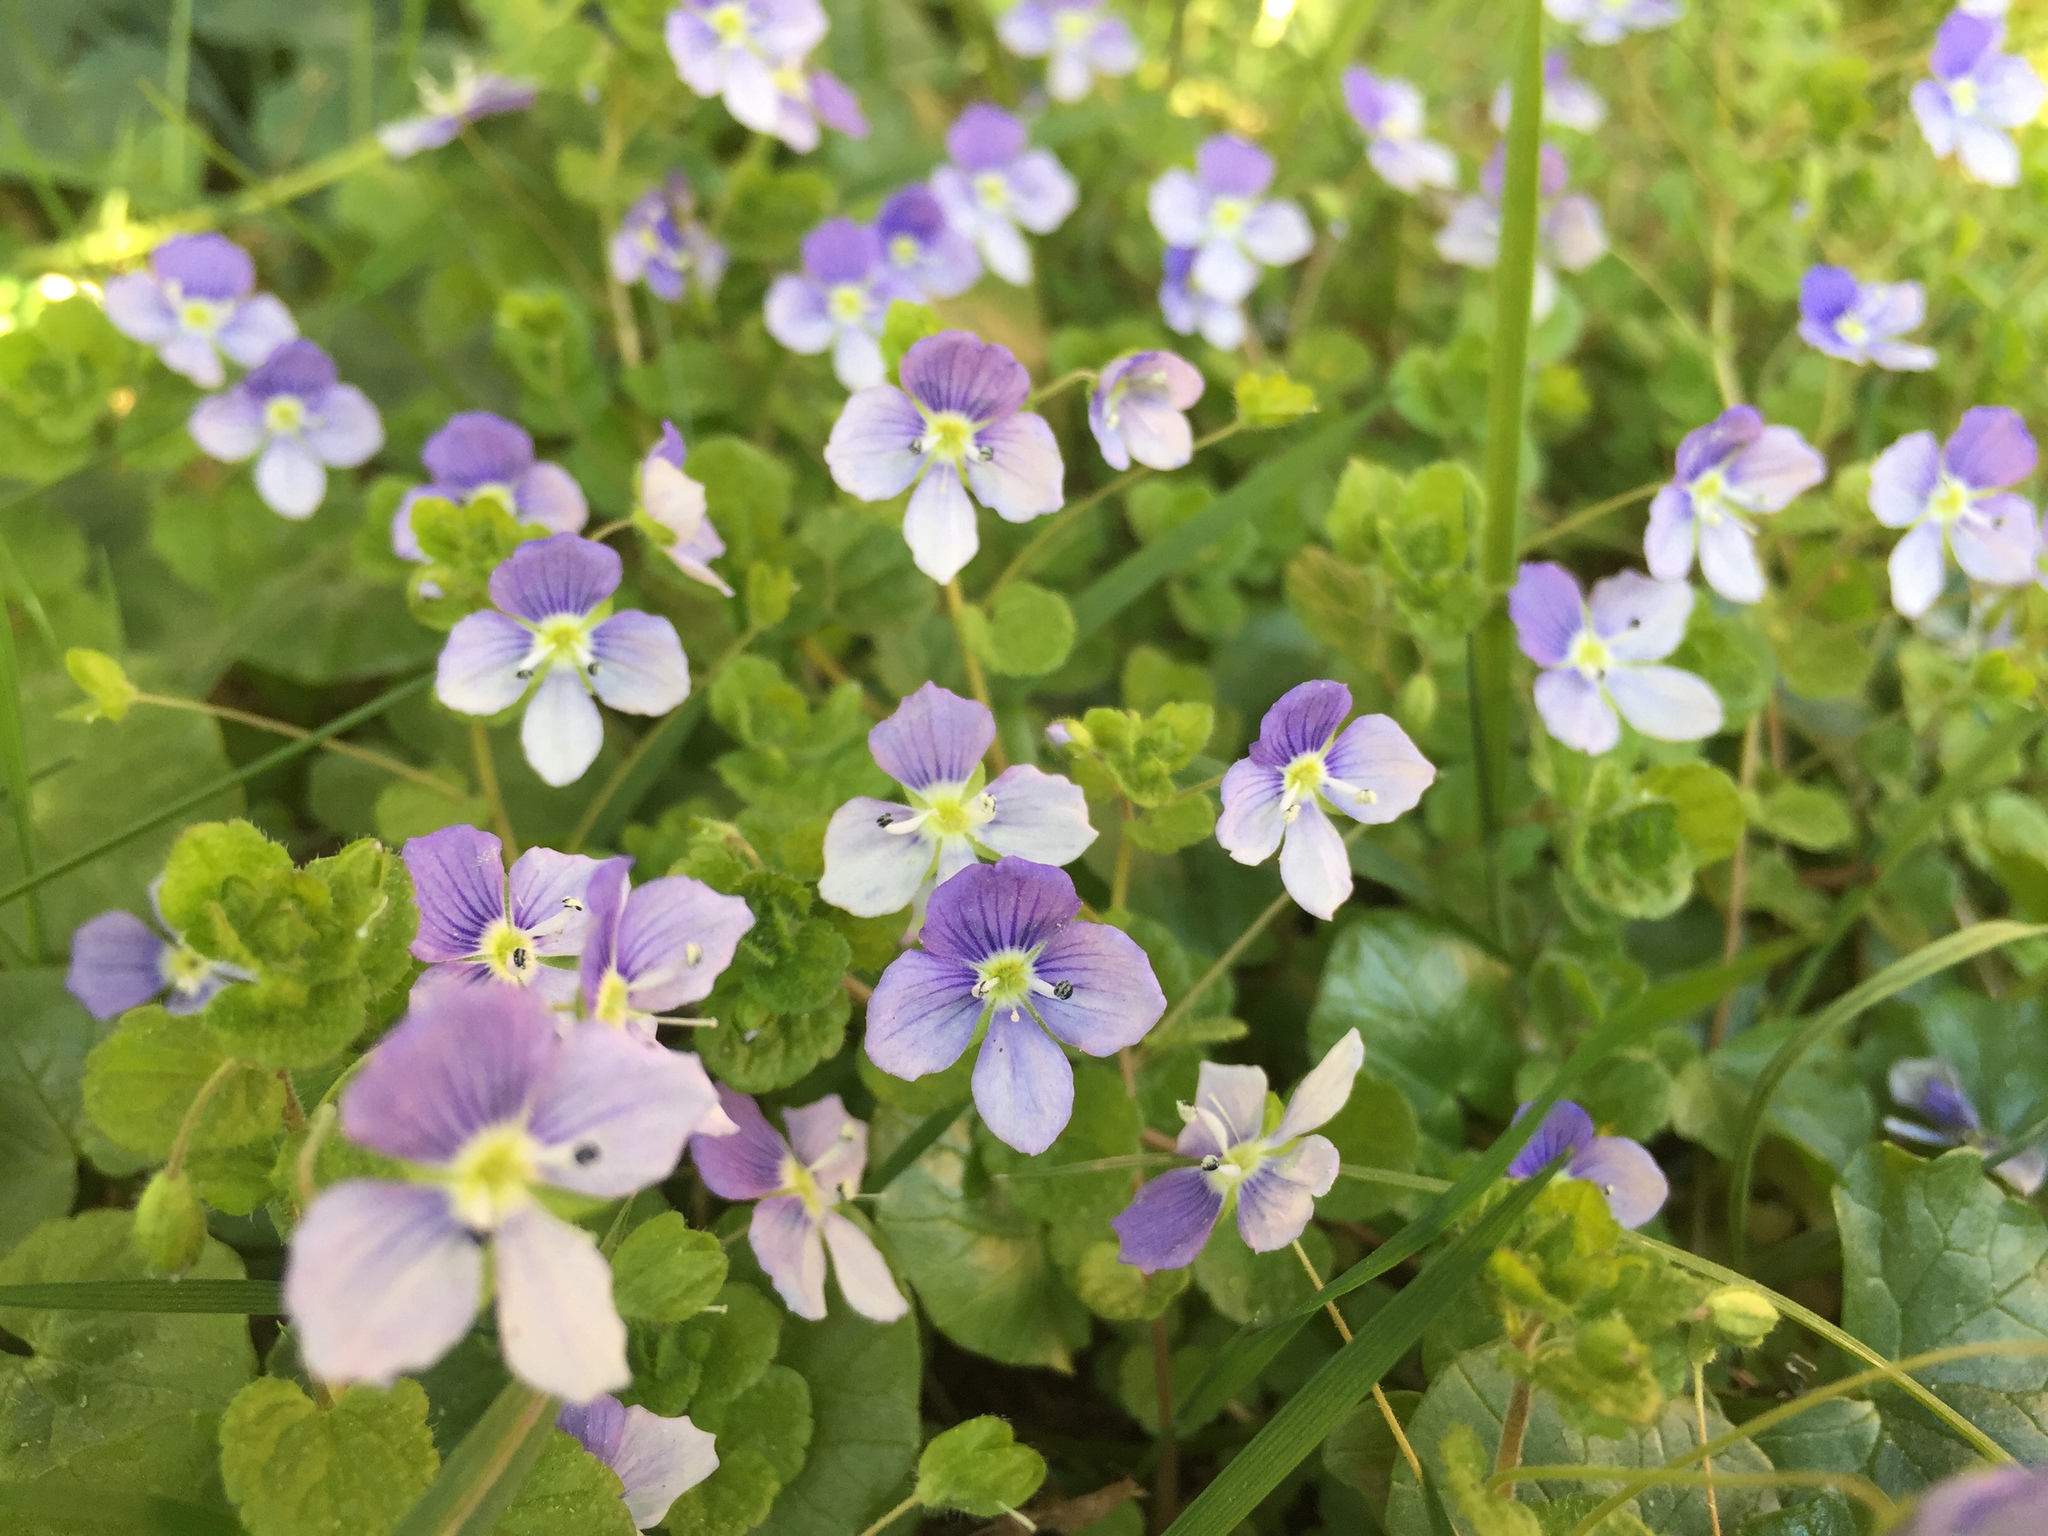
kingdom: Plantae
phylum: Tracheophyta
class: Magnoliopsida
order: Lamiales
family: Plantaginaceae
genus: Veronica
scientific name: Veronica filiformis
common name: Slender speedwell
